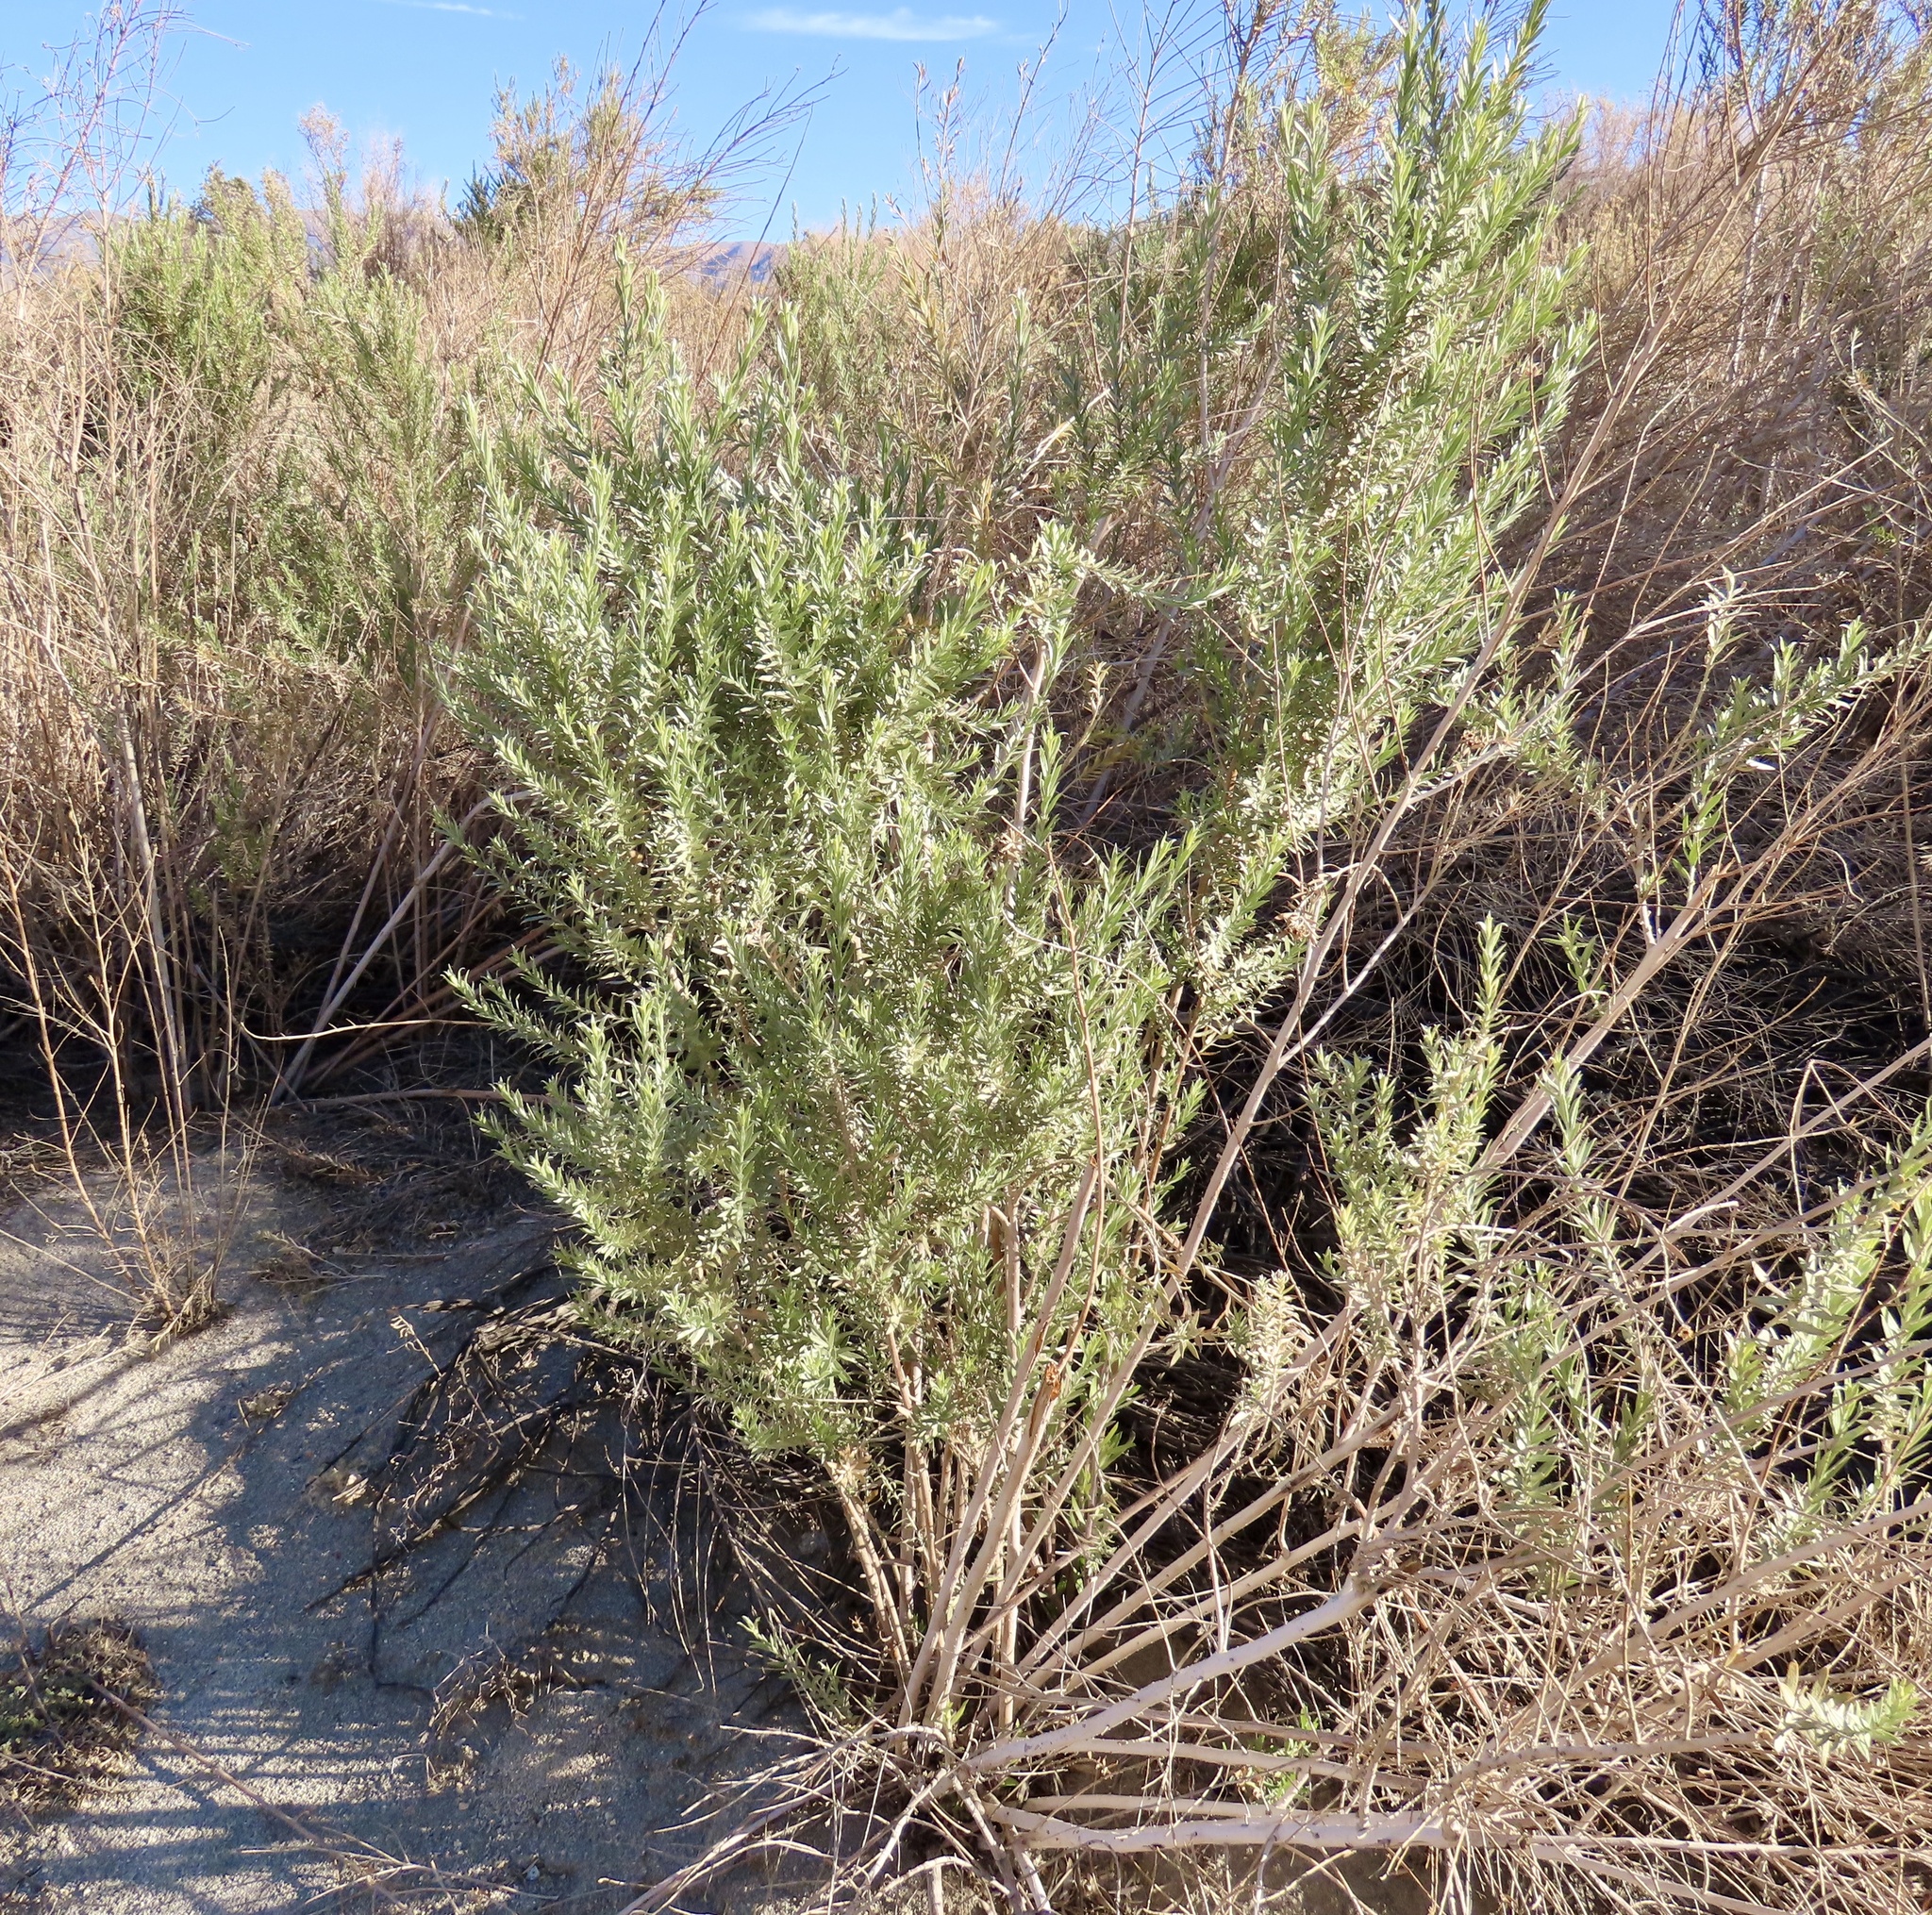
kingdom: Plantae
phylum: Tracheophyta
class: Magnoliopsida
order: Asterales
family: Asteraceae
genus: Pluchea
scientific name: Pluchea sericea
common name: Arrow-weed
